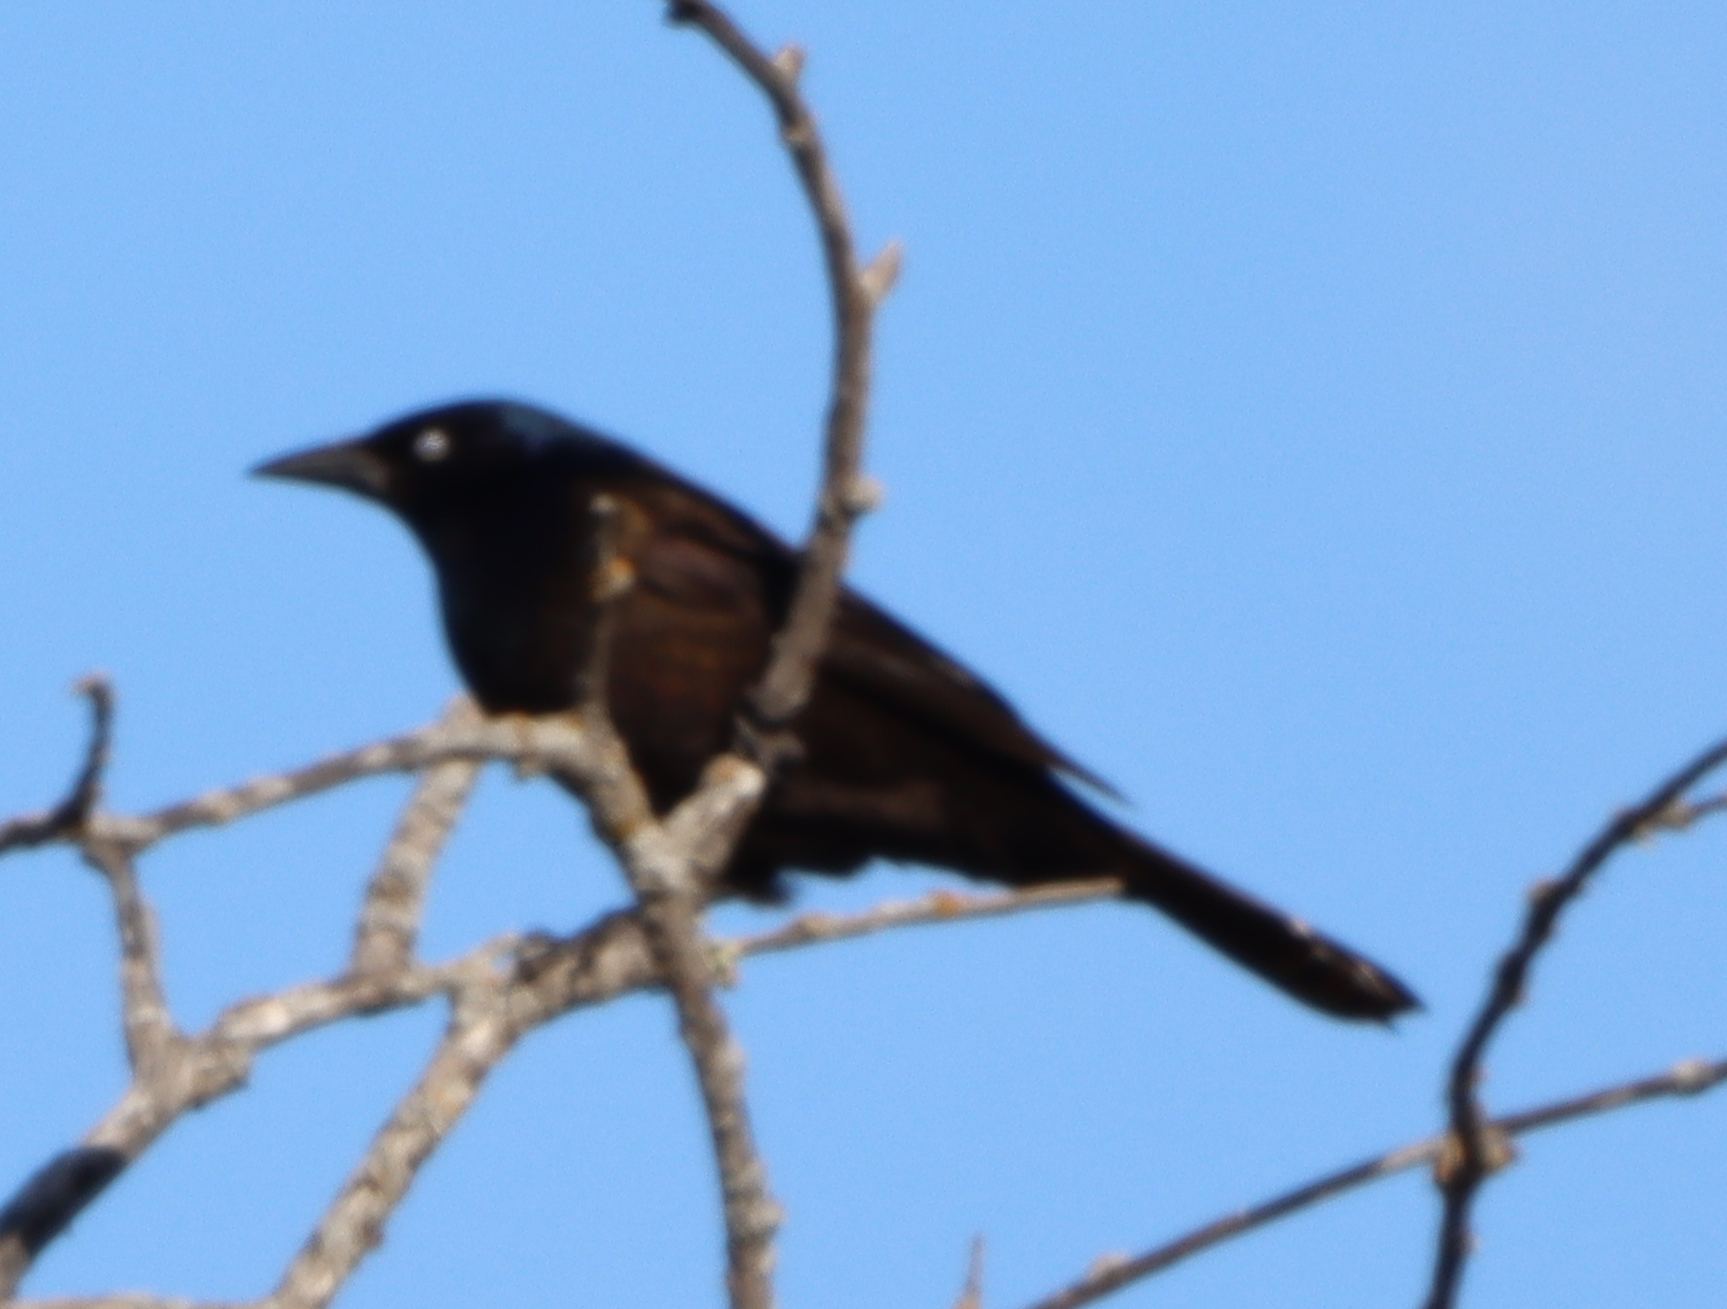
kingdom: Animalia
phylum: Chordata
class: Aves
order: Passeriformes
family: Icteridae
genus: Quiscalus
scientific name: Quiscalus quiscula
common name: Common grackle
